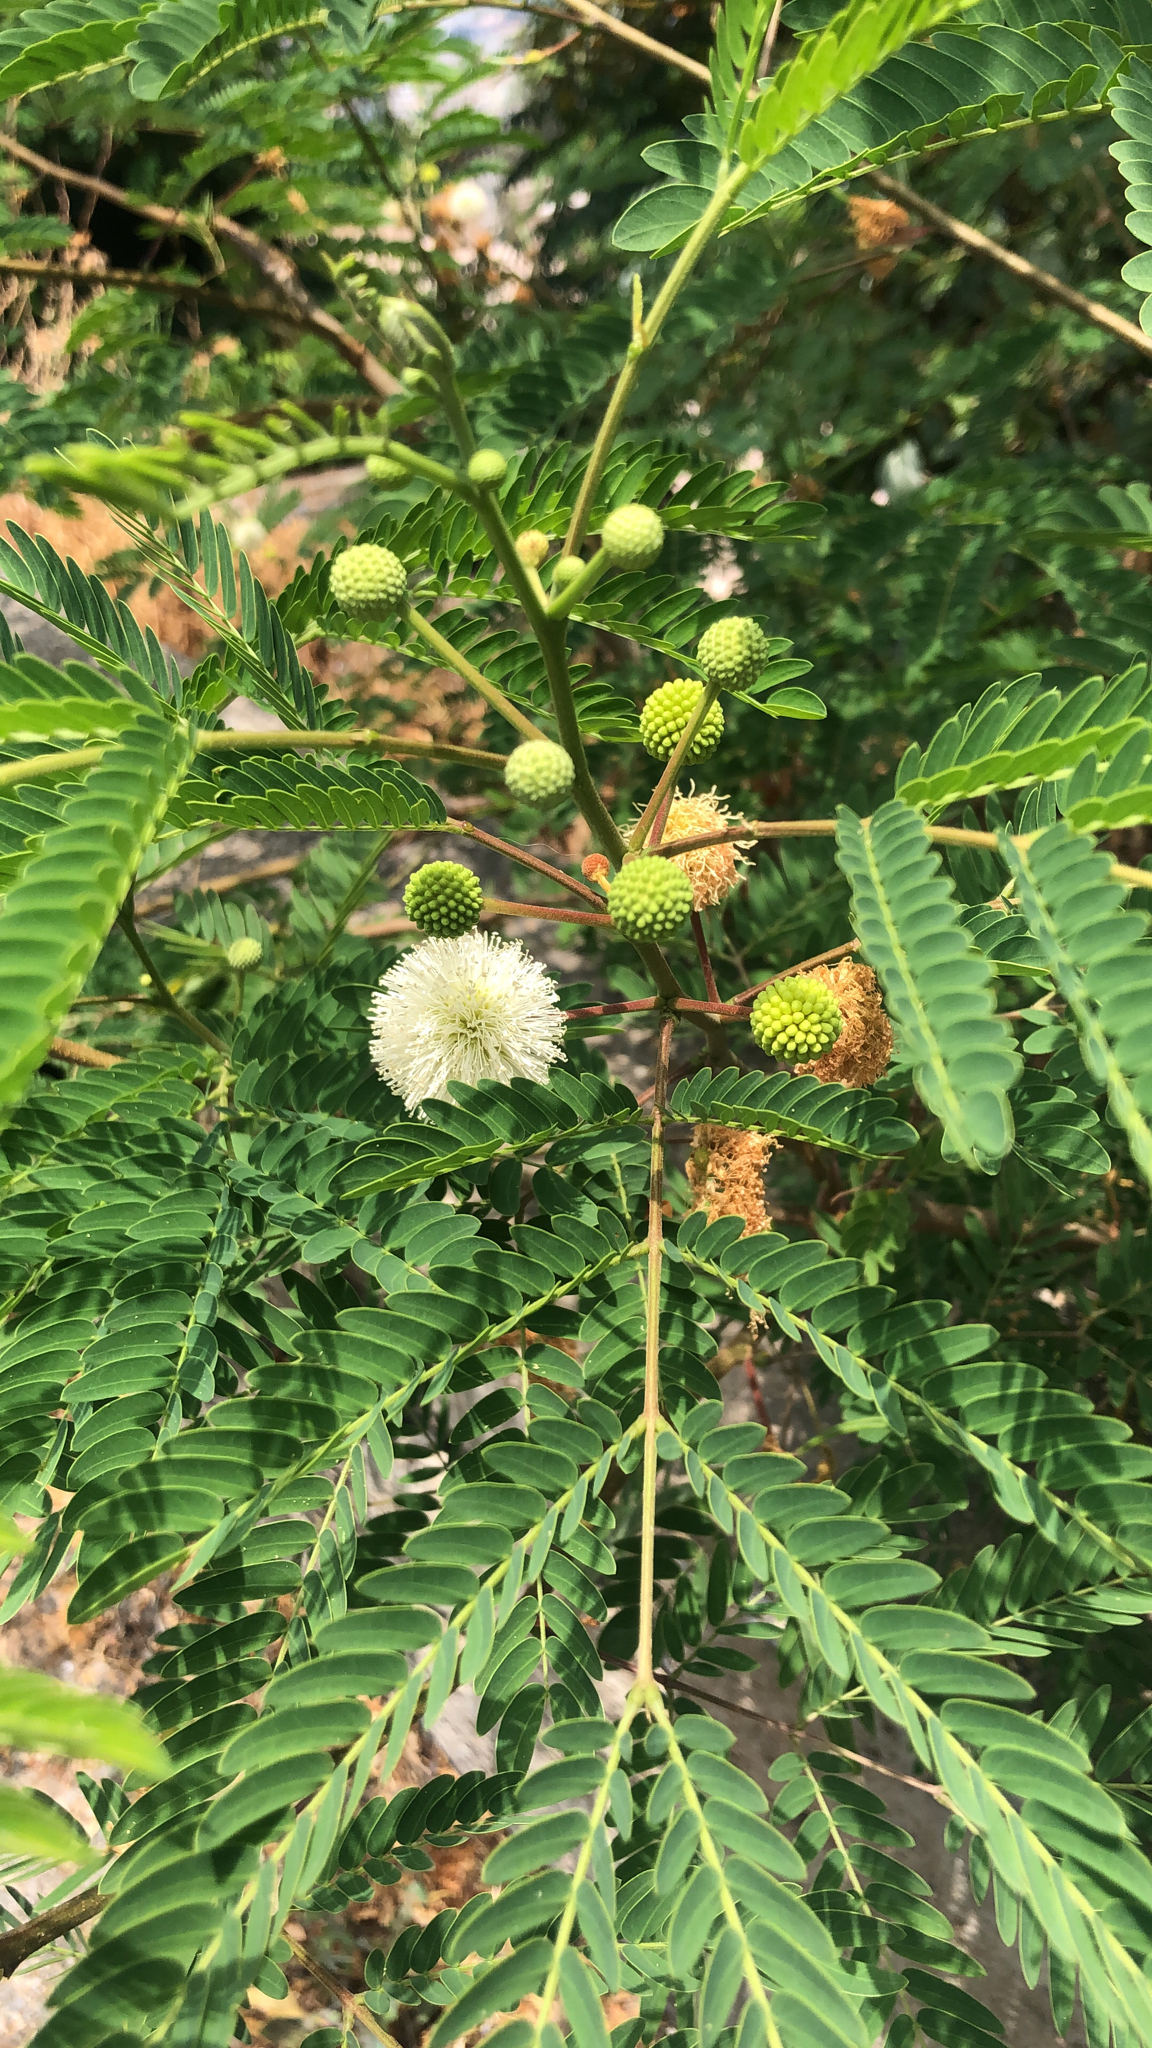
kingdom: Plantae
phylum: Tracheophyta
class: Magnoliopsida
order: Fabales
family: Fabaceae
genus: Leucaena
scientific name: Leucaena leucocephala
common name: White leadtree
